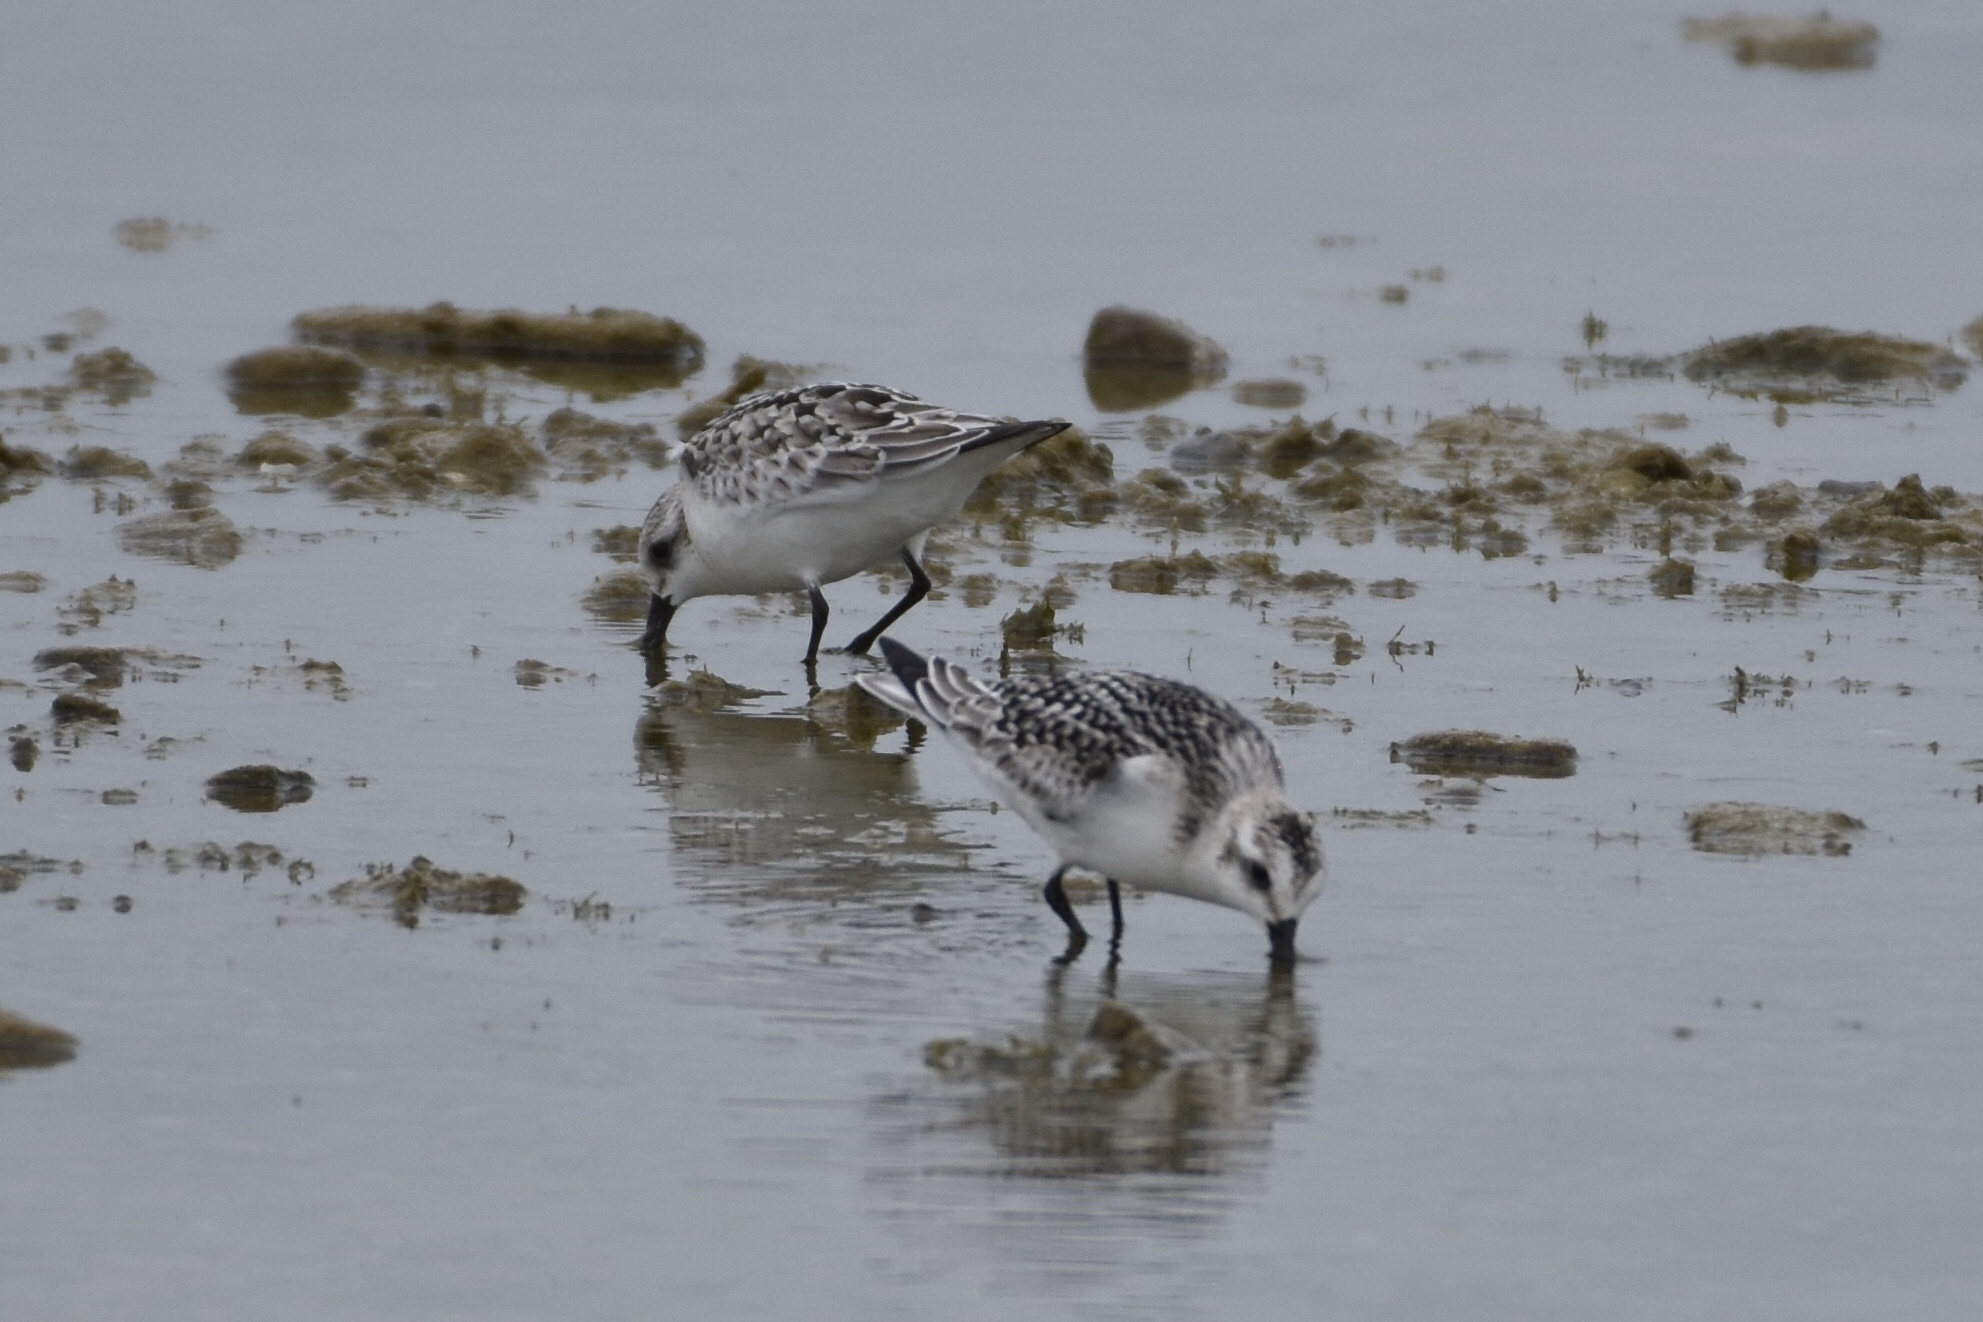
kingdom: Animalia
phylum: Chordata
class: Aves
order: Charadriiformes
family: Scolopacidae
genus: Calidris
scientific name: Calidris alba
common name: Sanderling
